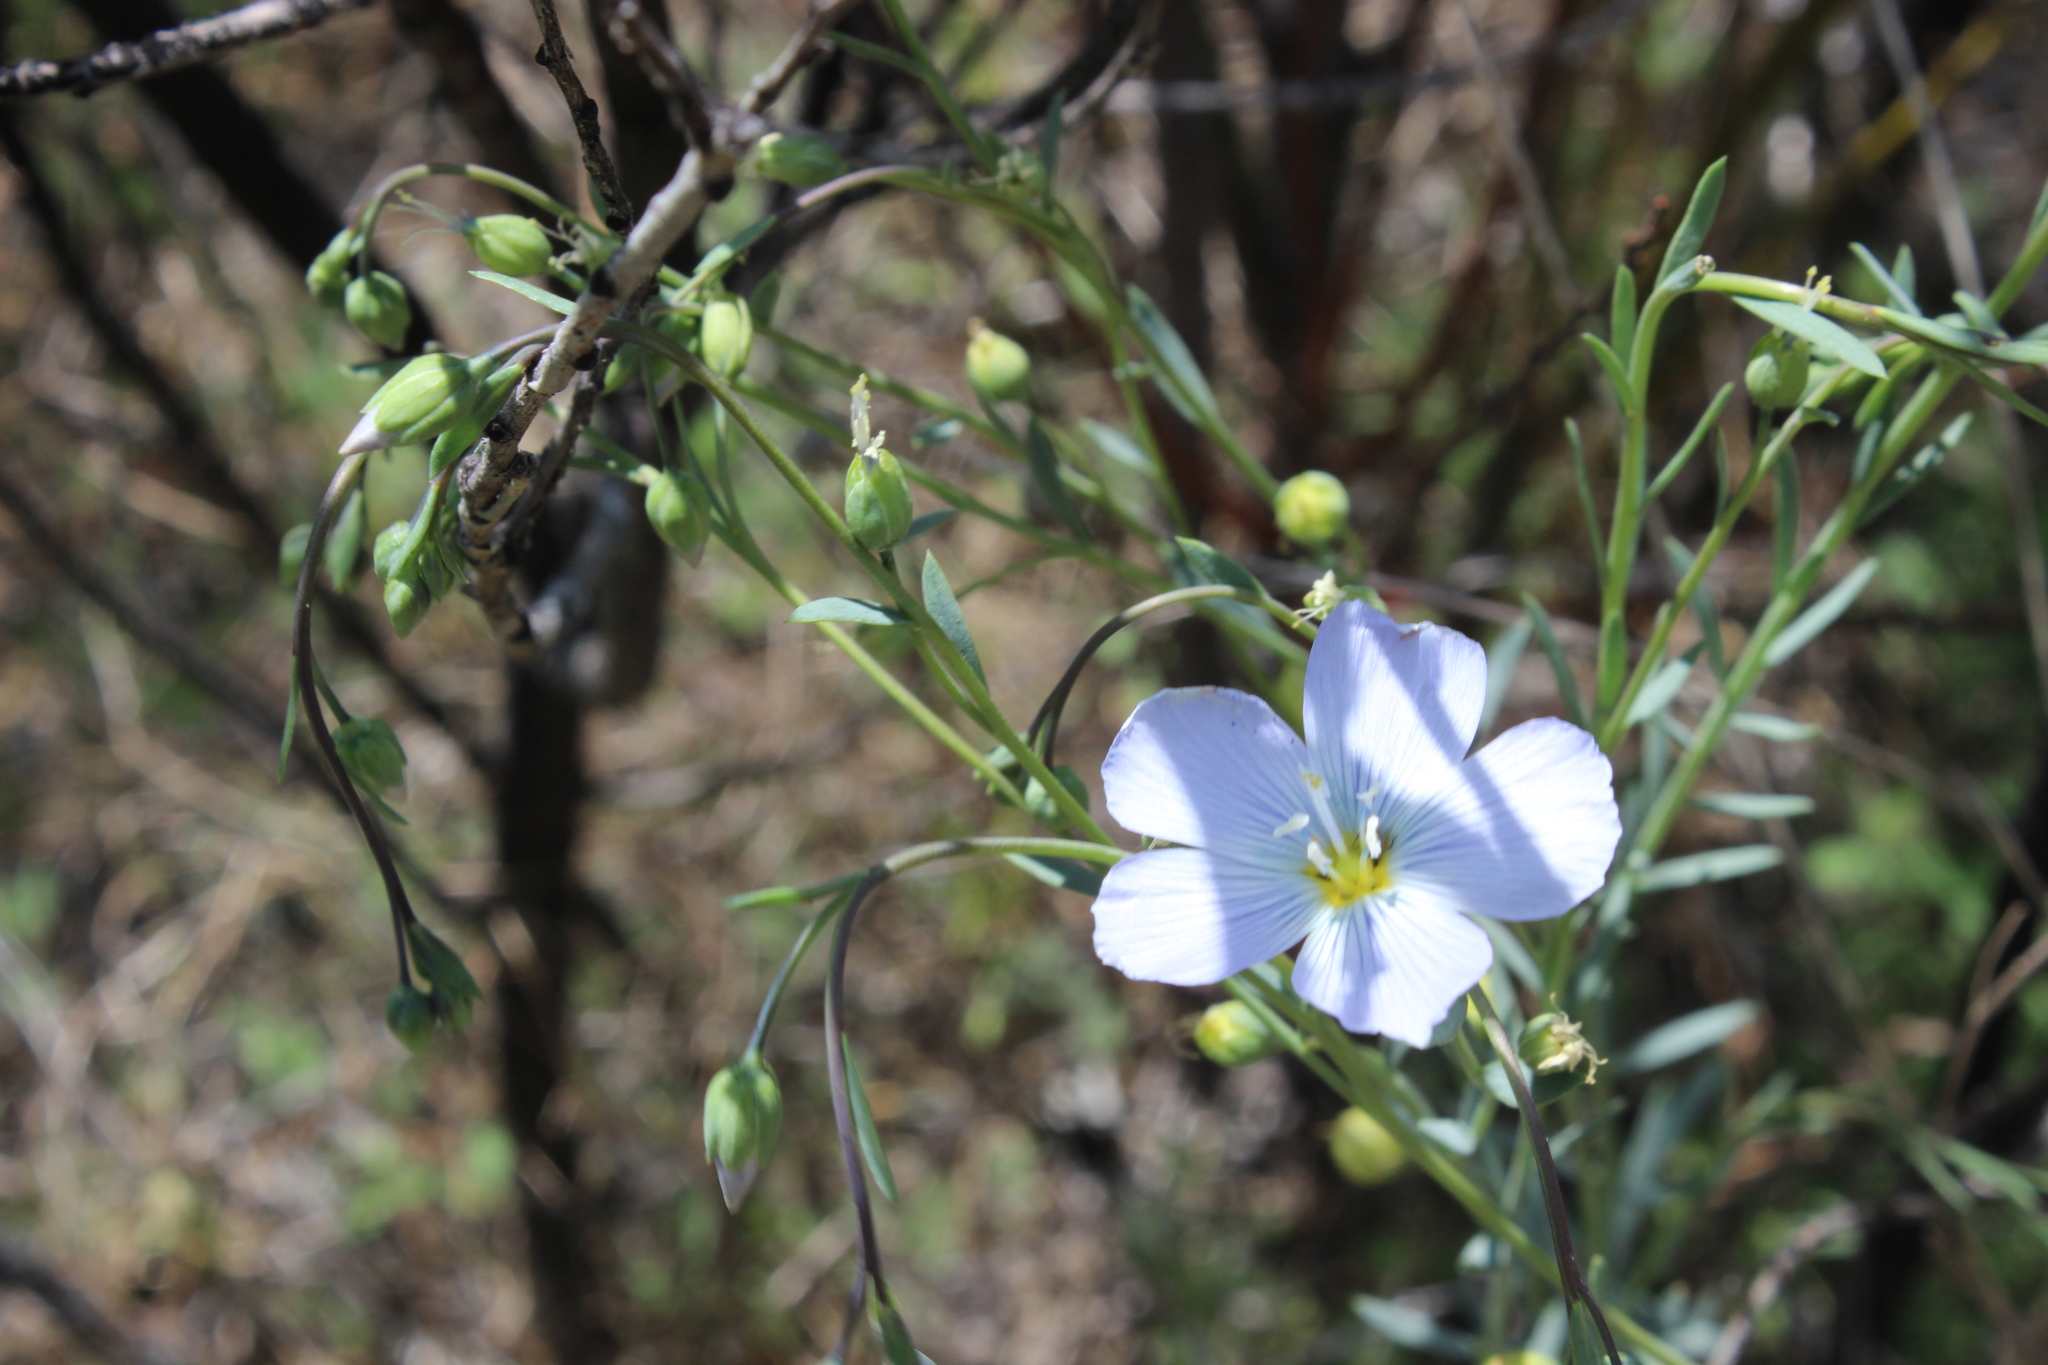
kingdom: Plantae
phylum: Tracheophyta
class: Magnoliopsida
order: Malpighiales
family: Linaceae
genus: Linum
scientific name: Linum lewisii
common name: Prairie flax
